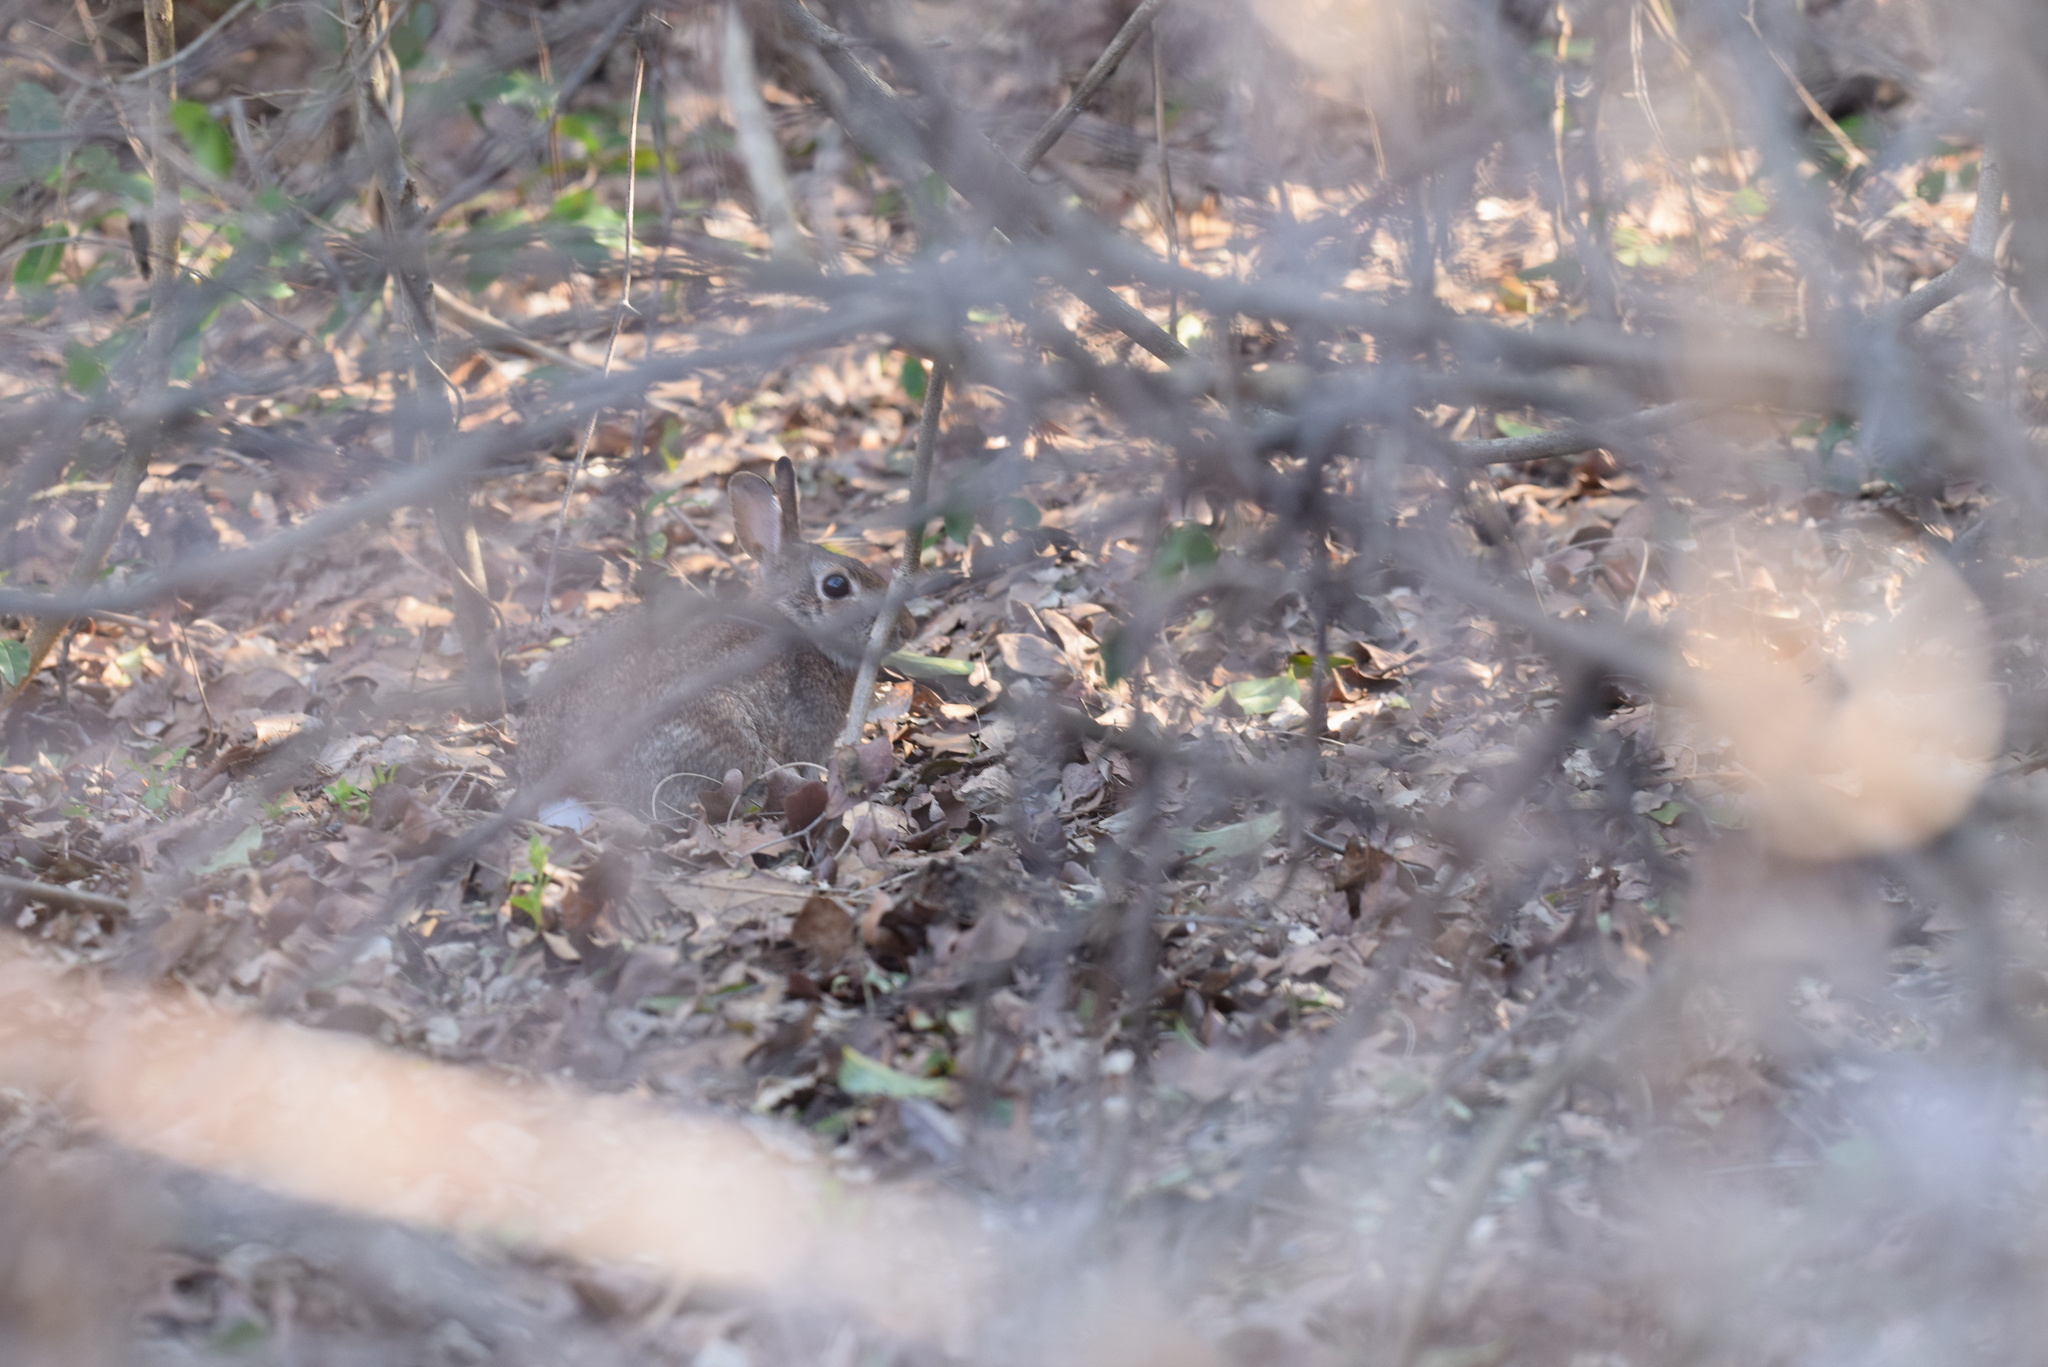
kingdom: Animalia
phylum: Chordata
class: Mammalia
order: Lagomorpha
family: Leporidae
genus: Sylvilagus
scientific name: Sylvilagus floridanus
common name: Eastern cottontail
